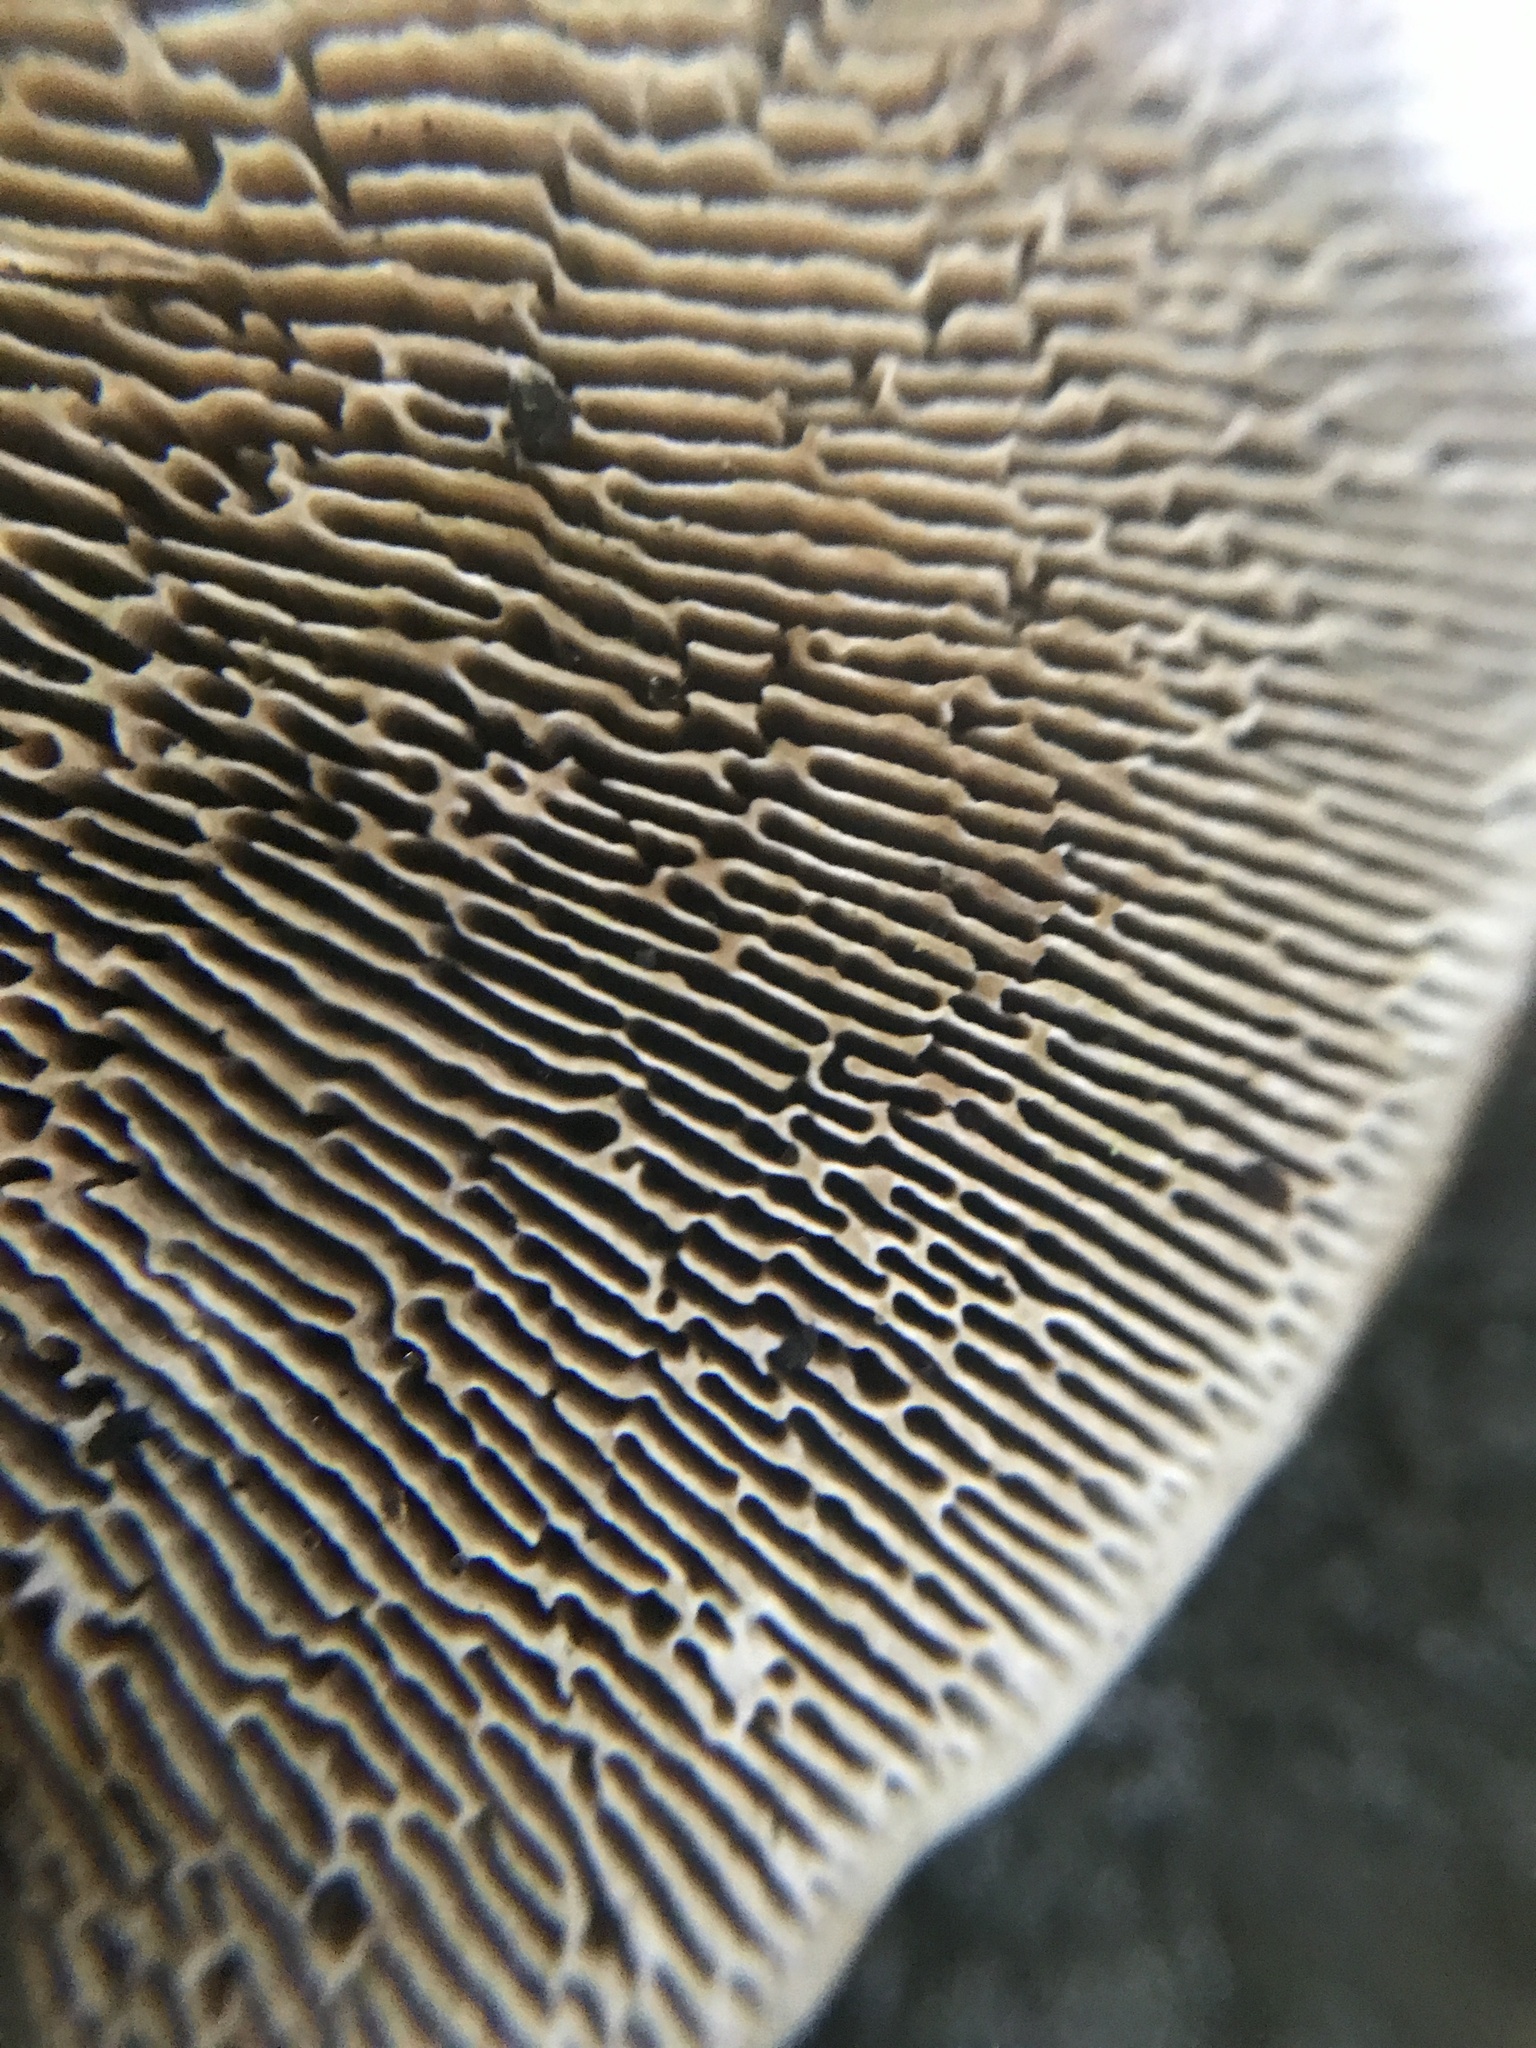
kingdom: Fungi
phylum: Basidiomycota
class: Agaricomycetes
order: Polyporales
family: Polyporaceae
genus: Daedaleopsis
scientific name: Daedaleopsis confragosa
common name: Blushing bracket
